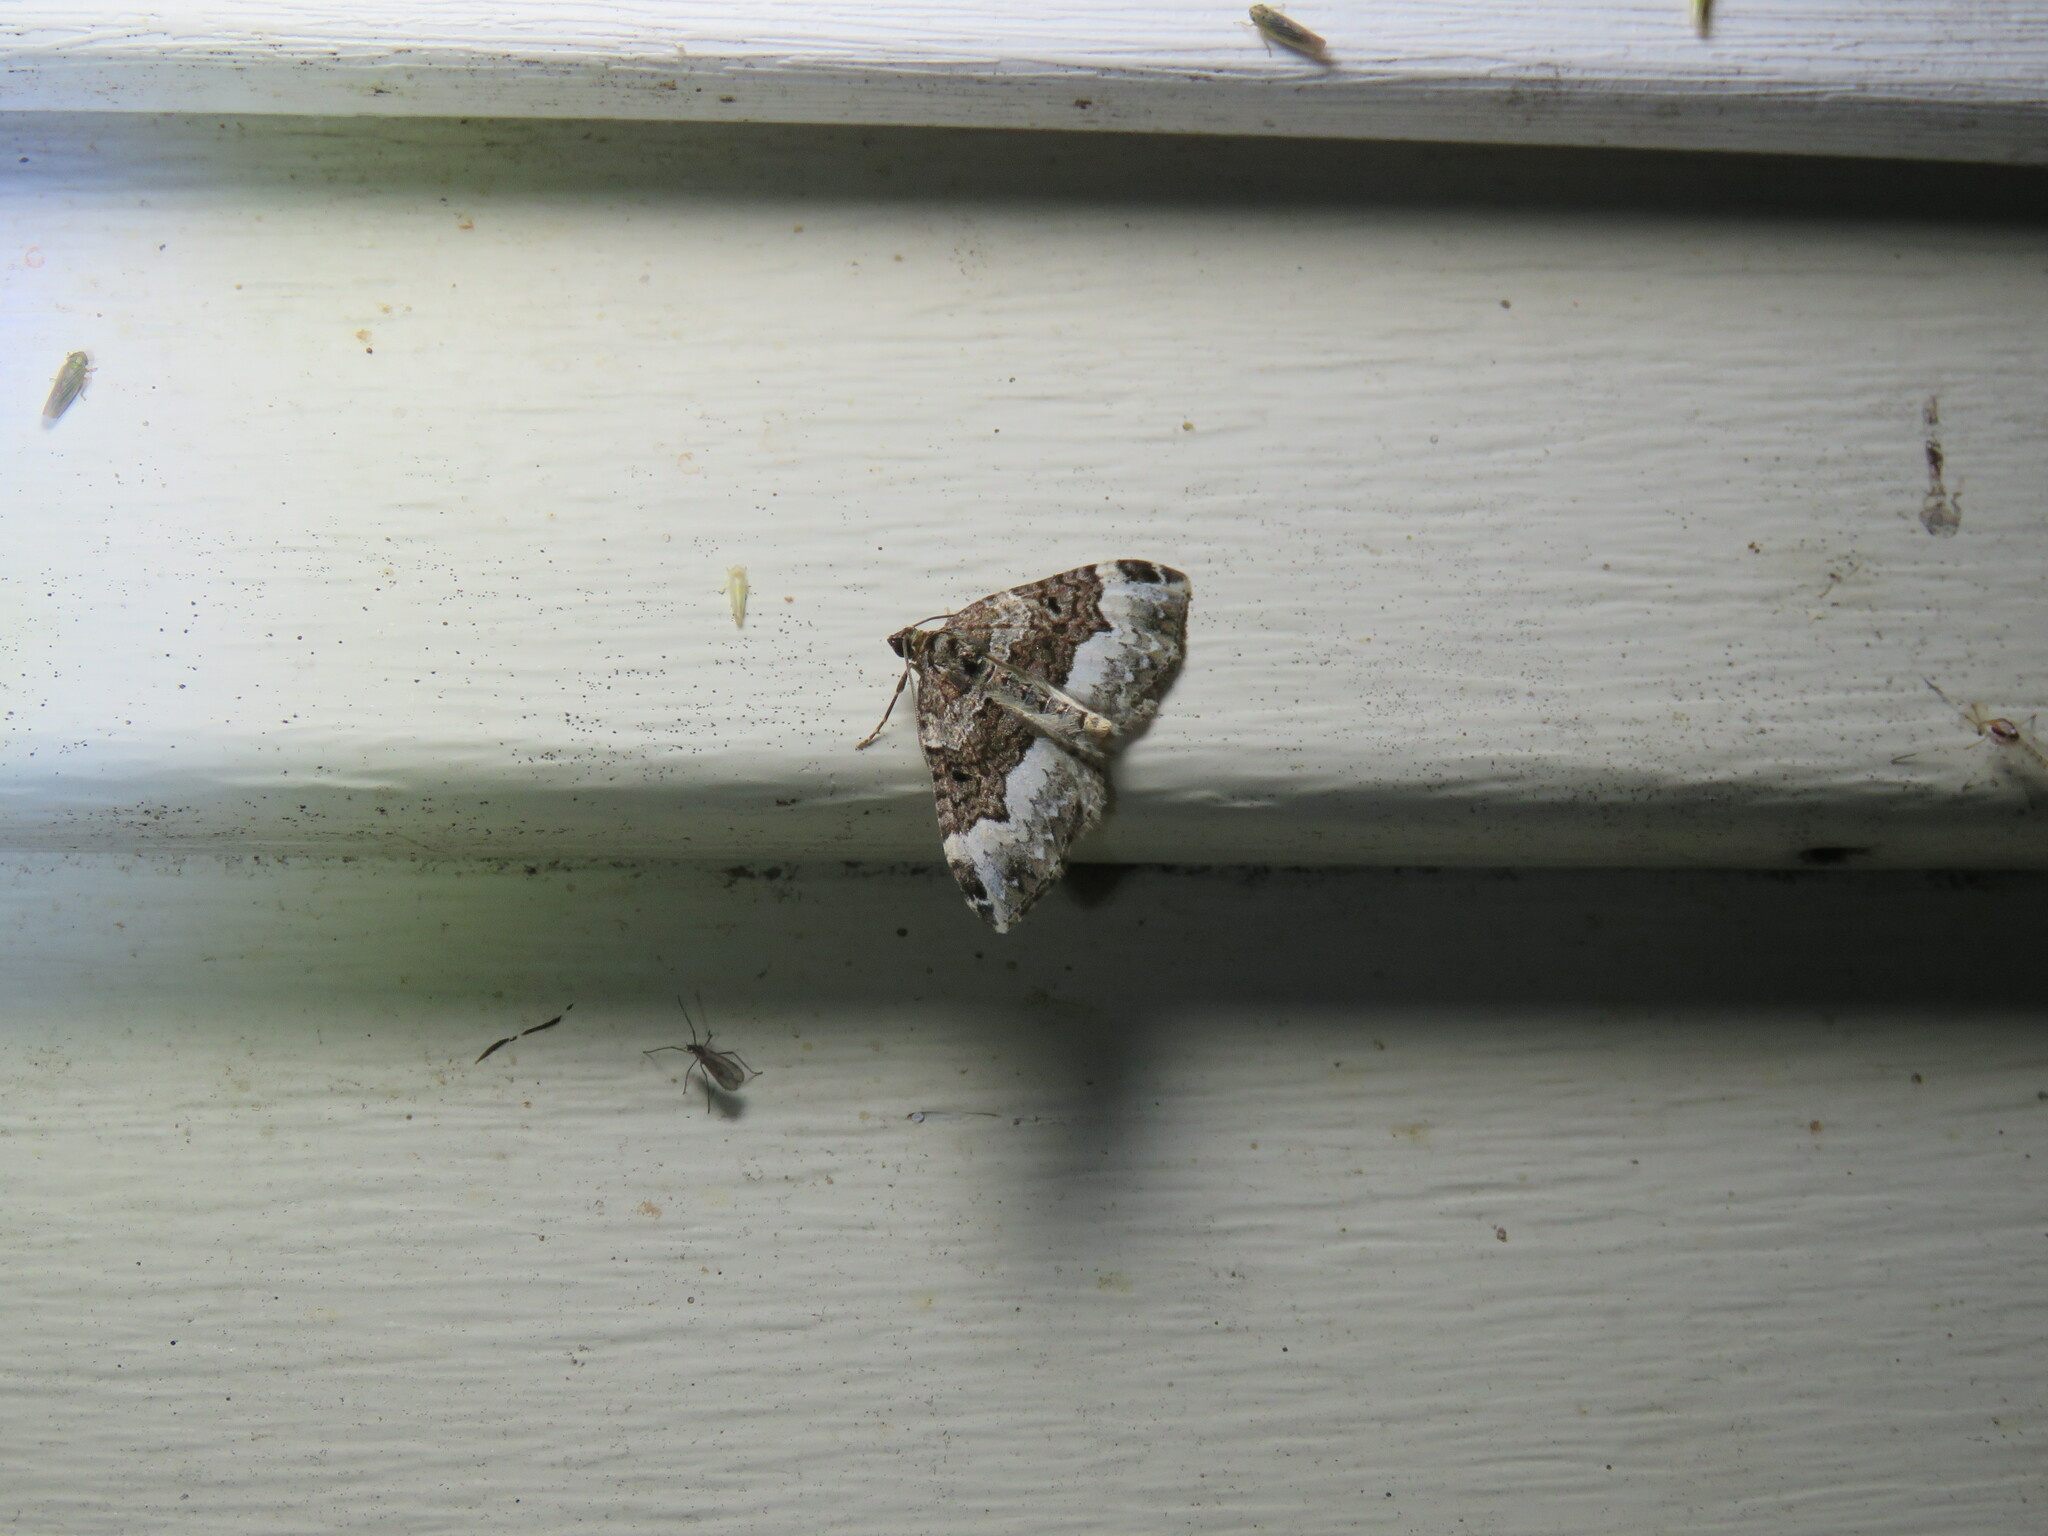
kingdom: Animalia
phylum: Arthropoda
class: Insecta
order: Lepidoptera
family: Geometridae
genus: Euphyia
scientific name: Euphyia intermediata
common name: Sharp-angled carpet
